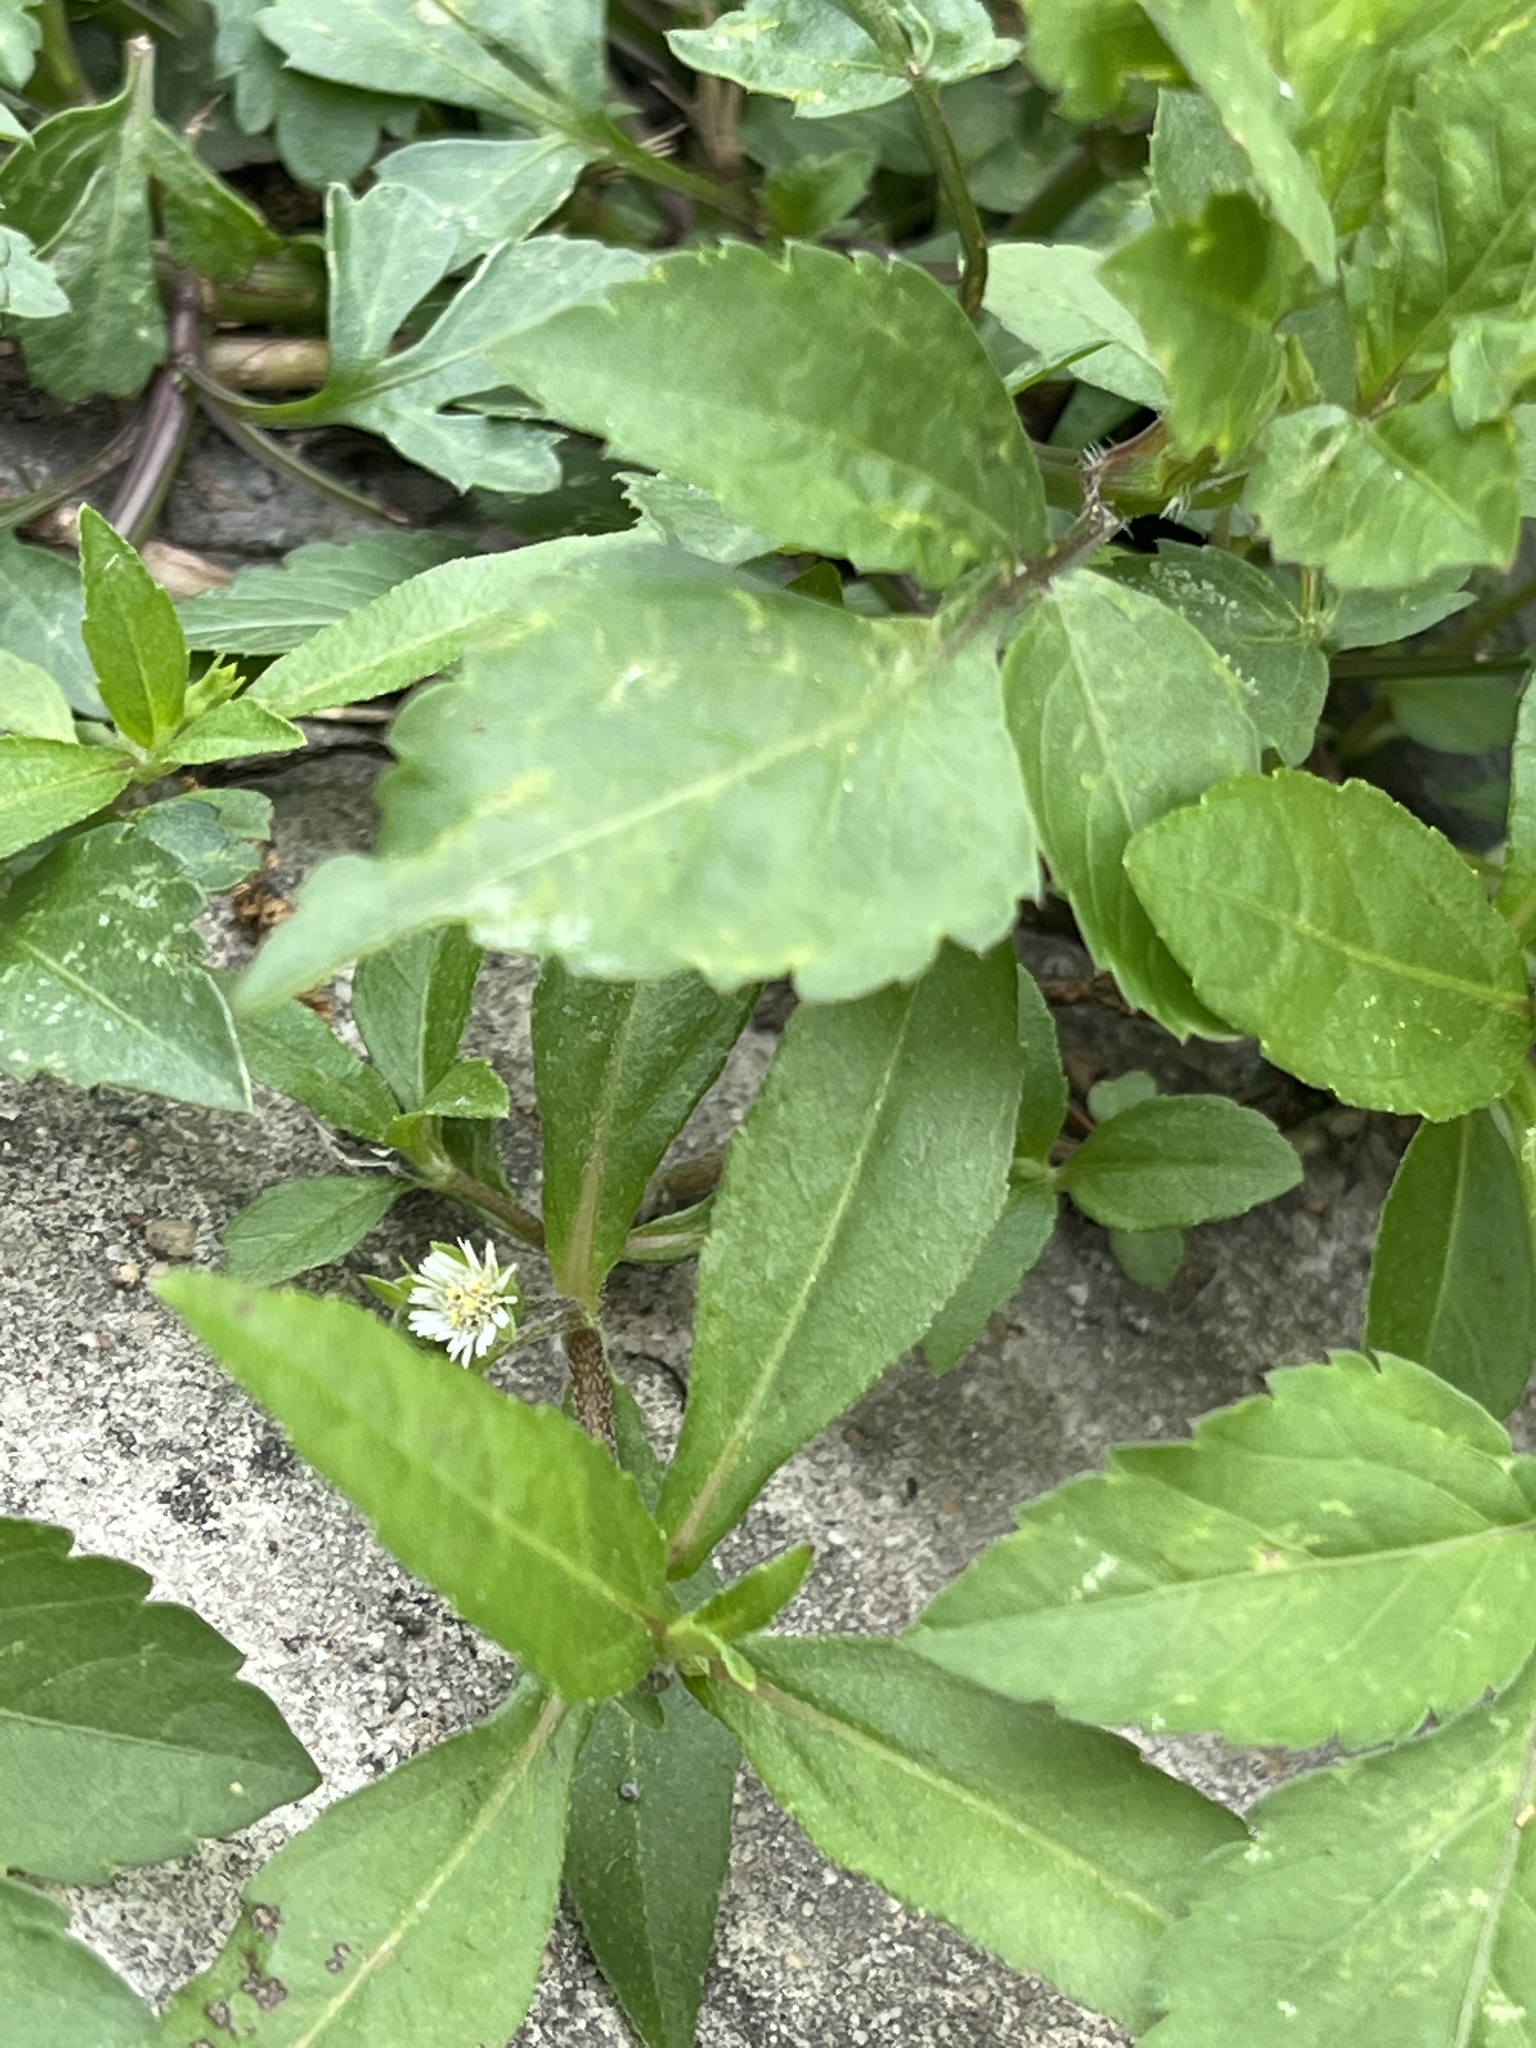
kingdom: Plantae
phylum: Tracheophyta
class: Magnoliopsida
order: Asterales
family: Asteraceae
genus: Eclipta
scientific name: Eclipta prostrata
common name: False daisy
